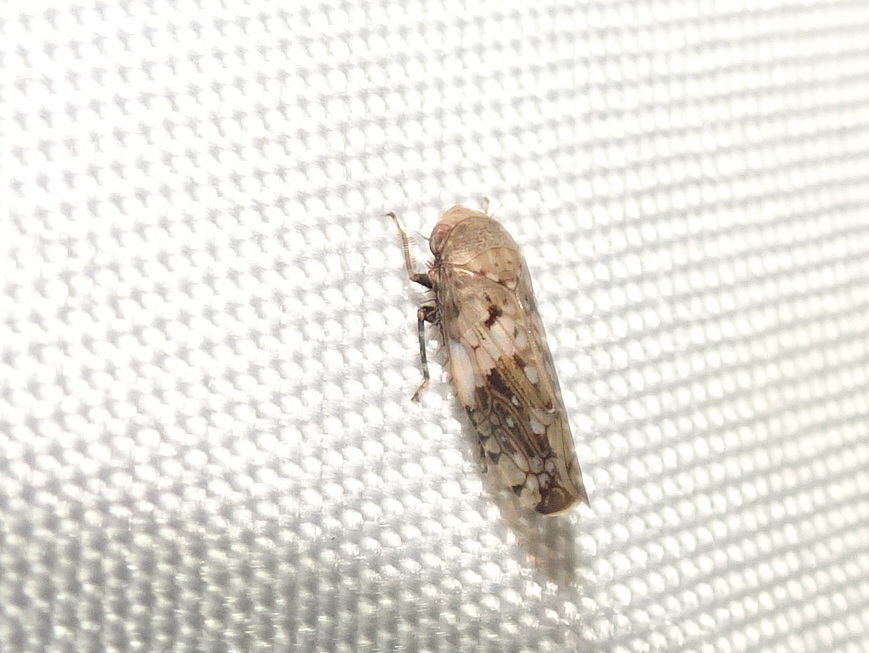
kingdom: Animalia
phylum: Arthropoda
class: Insecta
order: Hemiptera
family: Cicadellidae
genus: Menosoma
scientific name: Menosoma cinctum
